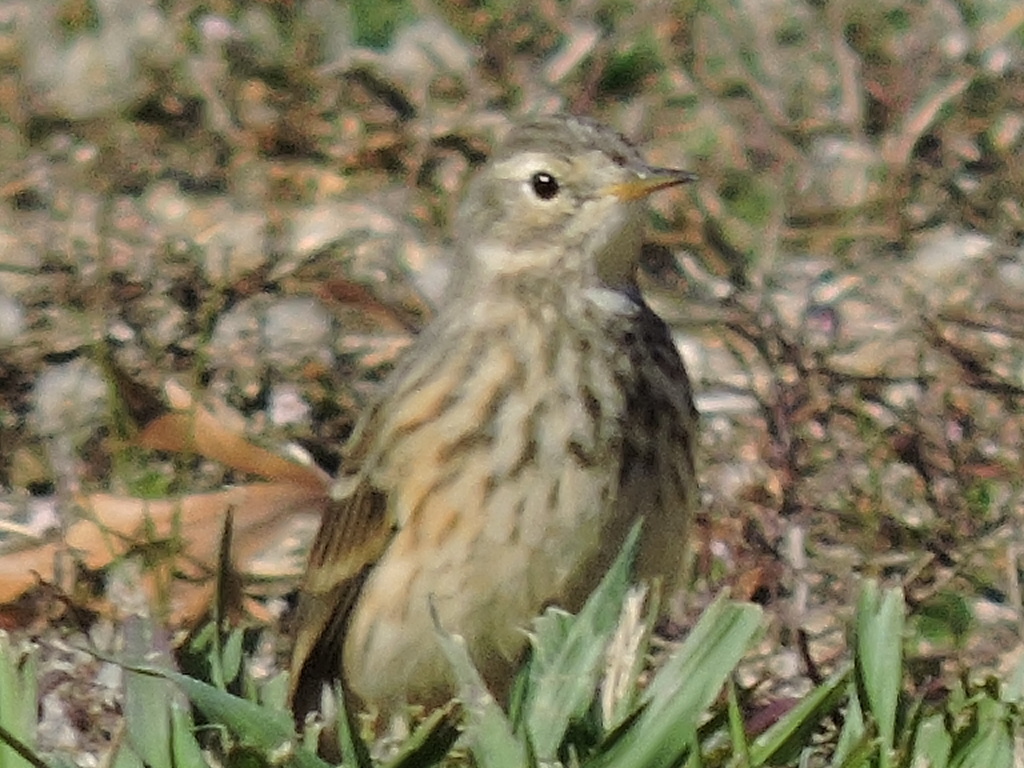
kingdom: Animalia
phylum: Chordata
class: Aves
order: Passeriformes
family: Motacillidae
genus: Anthus
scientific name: Anthus rubescens
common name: Buff-bellied pipit
